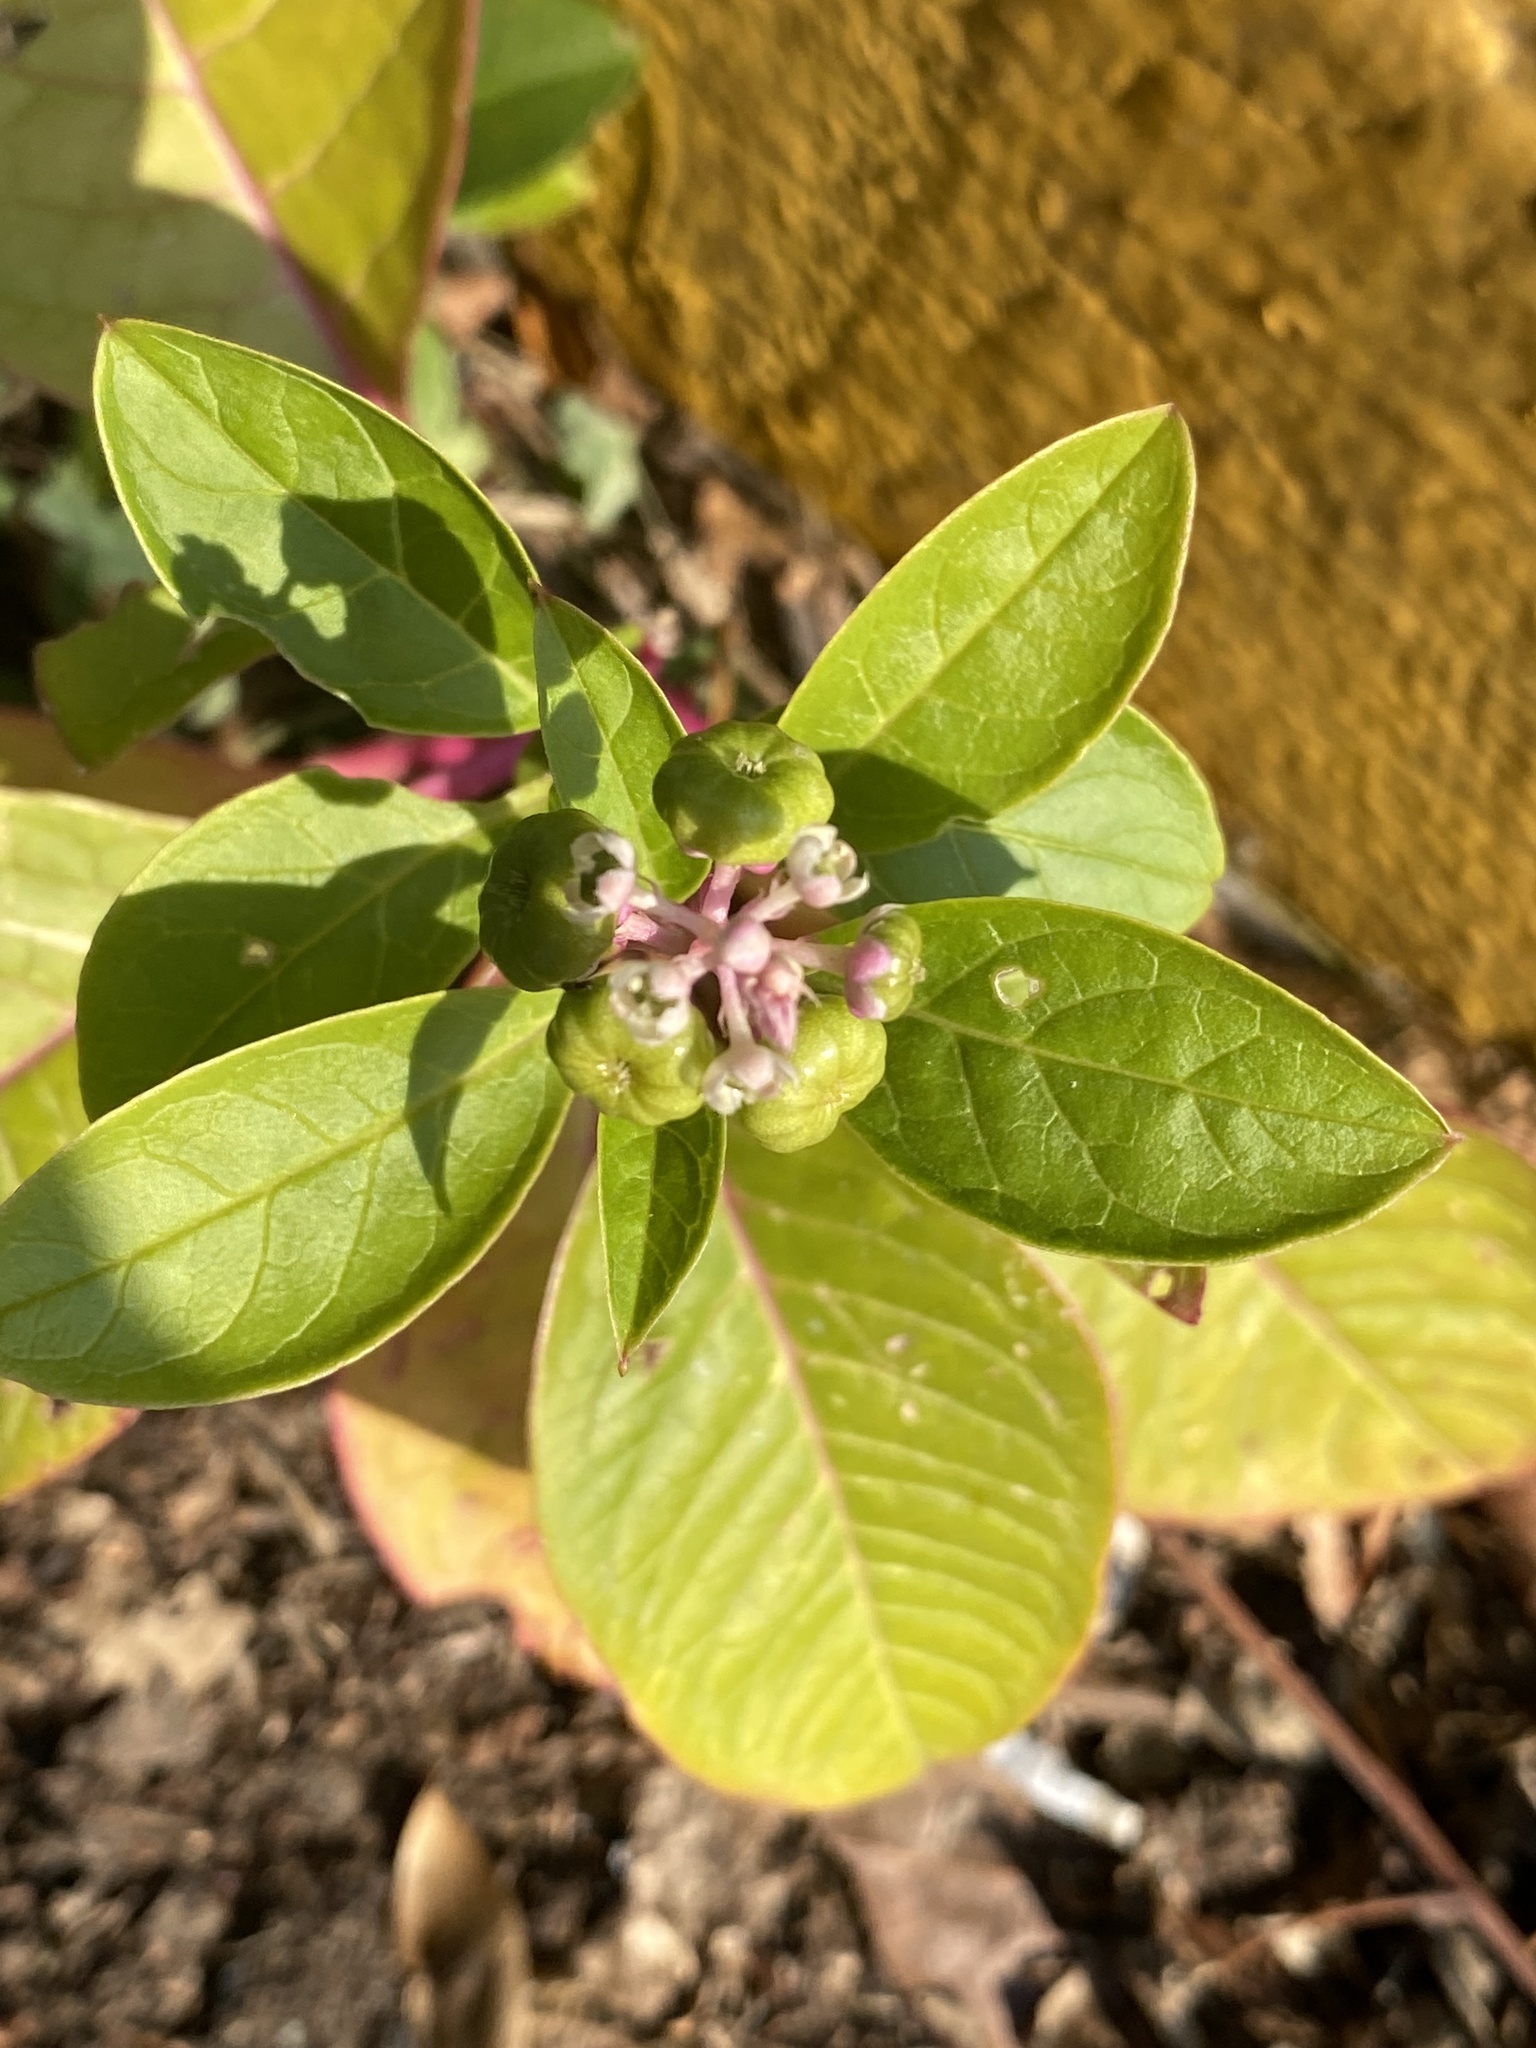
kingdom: Plantae
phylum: Tracheophyta
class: Magnoliopsida
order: Caryophyllales
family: Phytolaccaceae
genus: Phytolacca
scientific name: Phytolacca americana
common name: American pokeweed
